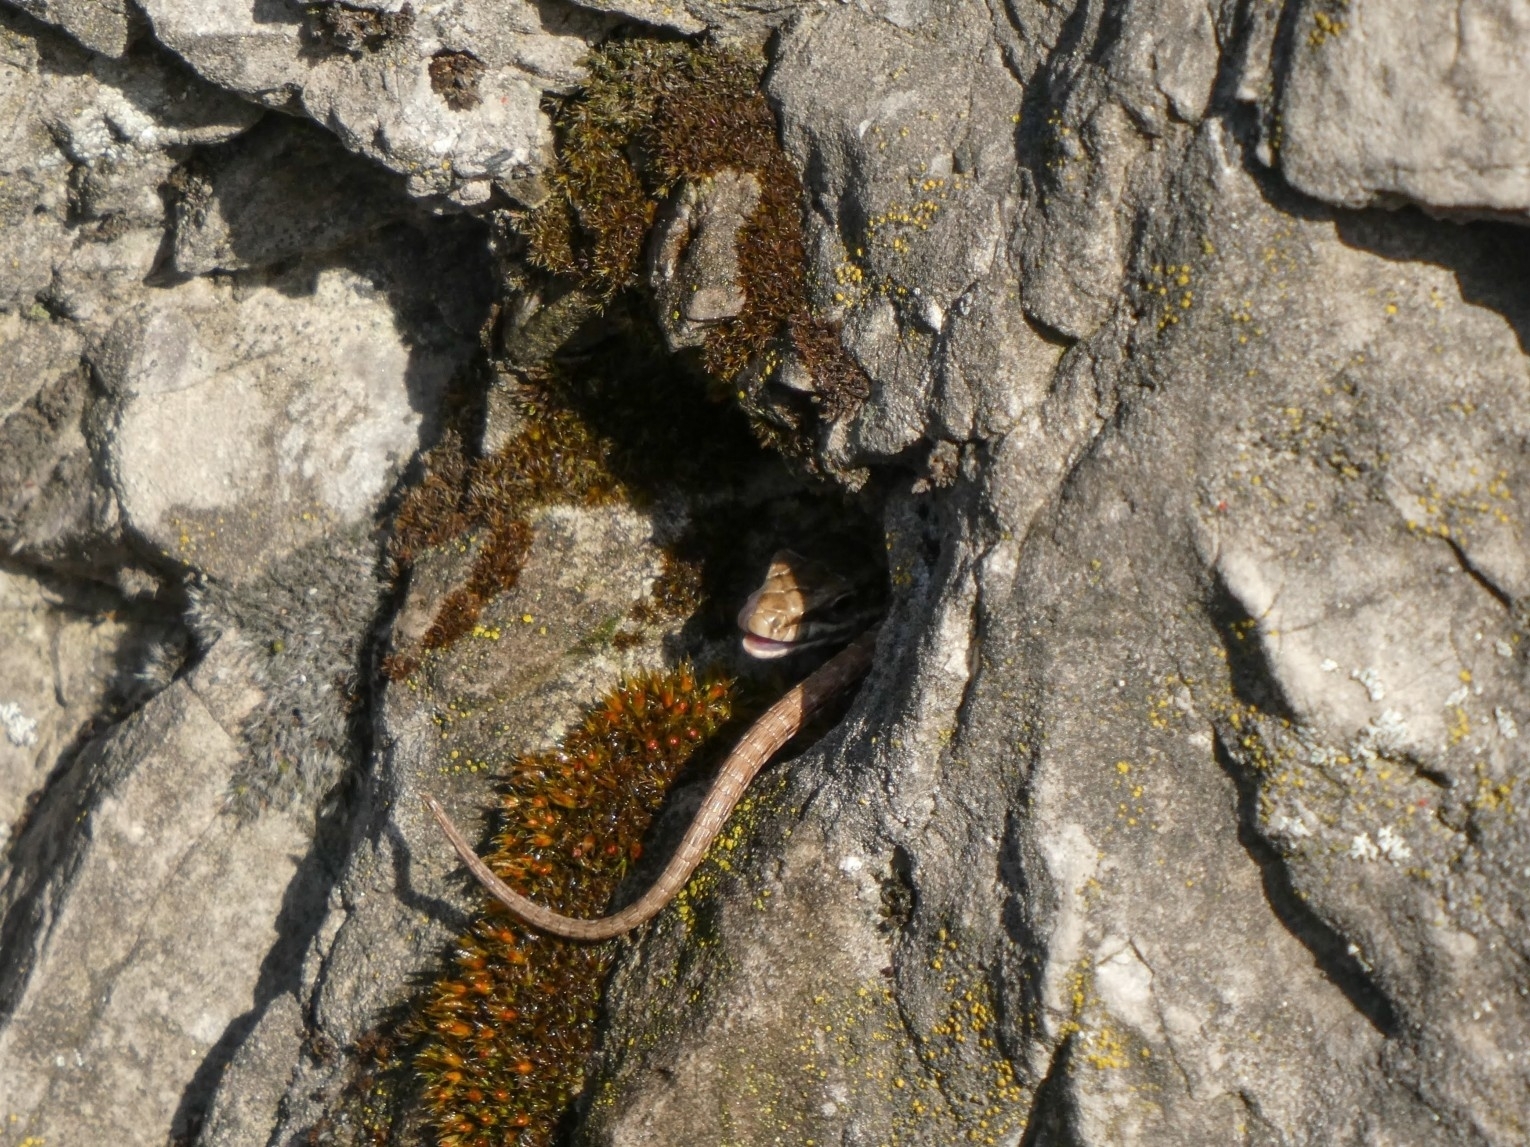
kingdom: Animalia
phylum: Chordata
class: Squamata
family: Lacertidae
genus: Podarcis
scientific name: Podarcis muralis
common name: Common wall lizard
